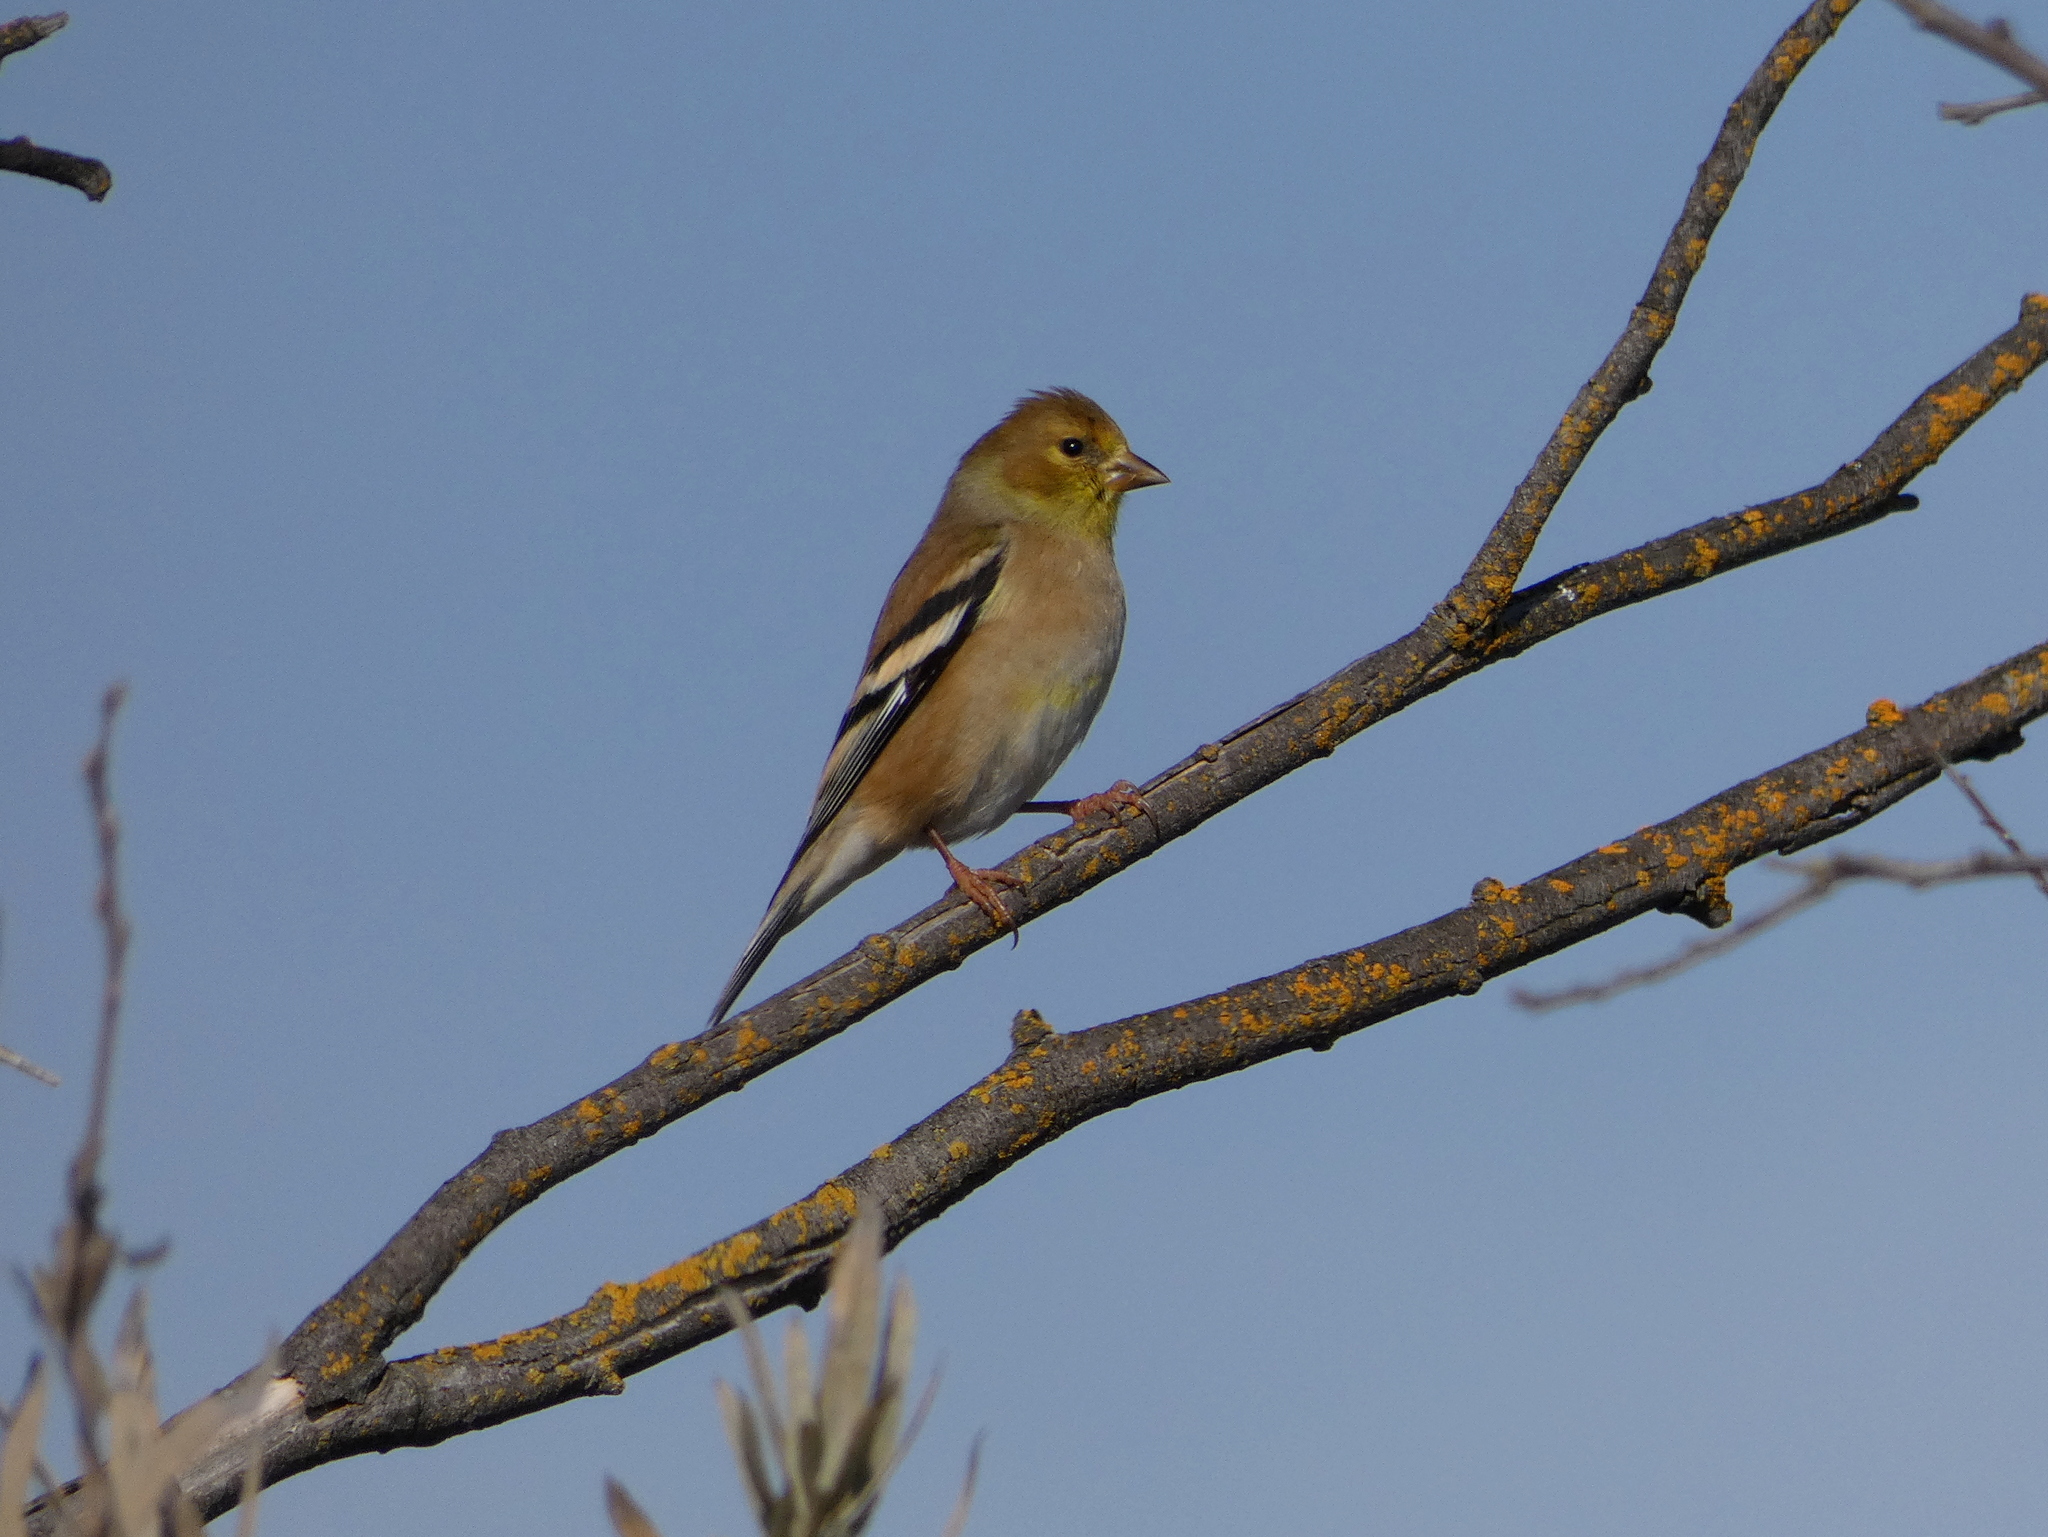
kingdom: Animalia
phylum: Chordata
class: Aves
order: Passeriformes
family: Fringillidae
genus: Spinus
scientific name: Spinus tristis
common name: American goldfinch
